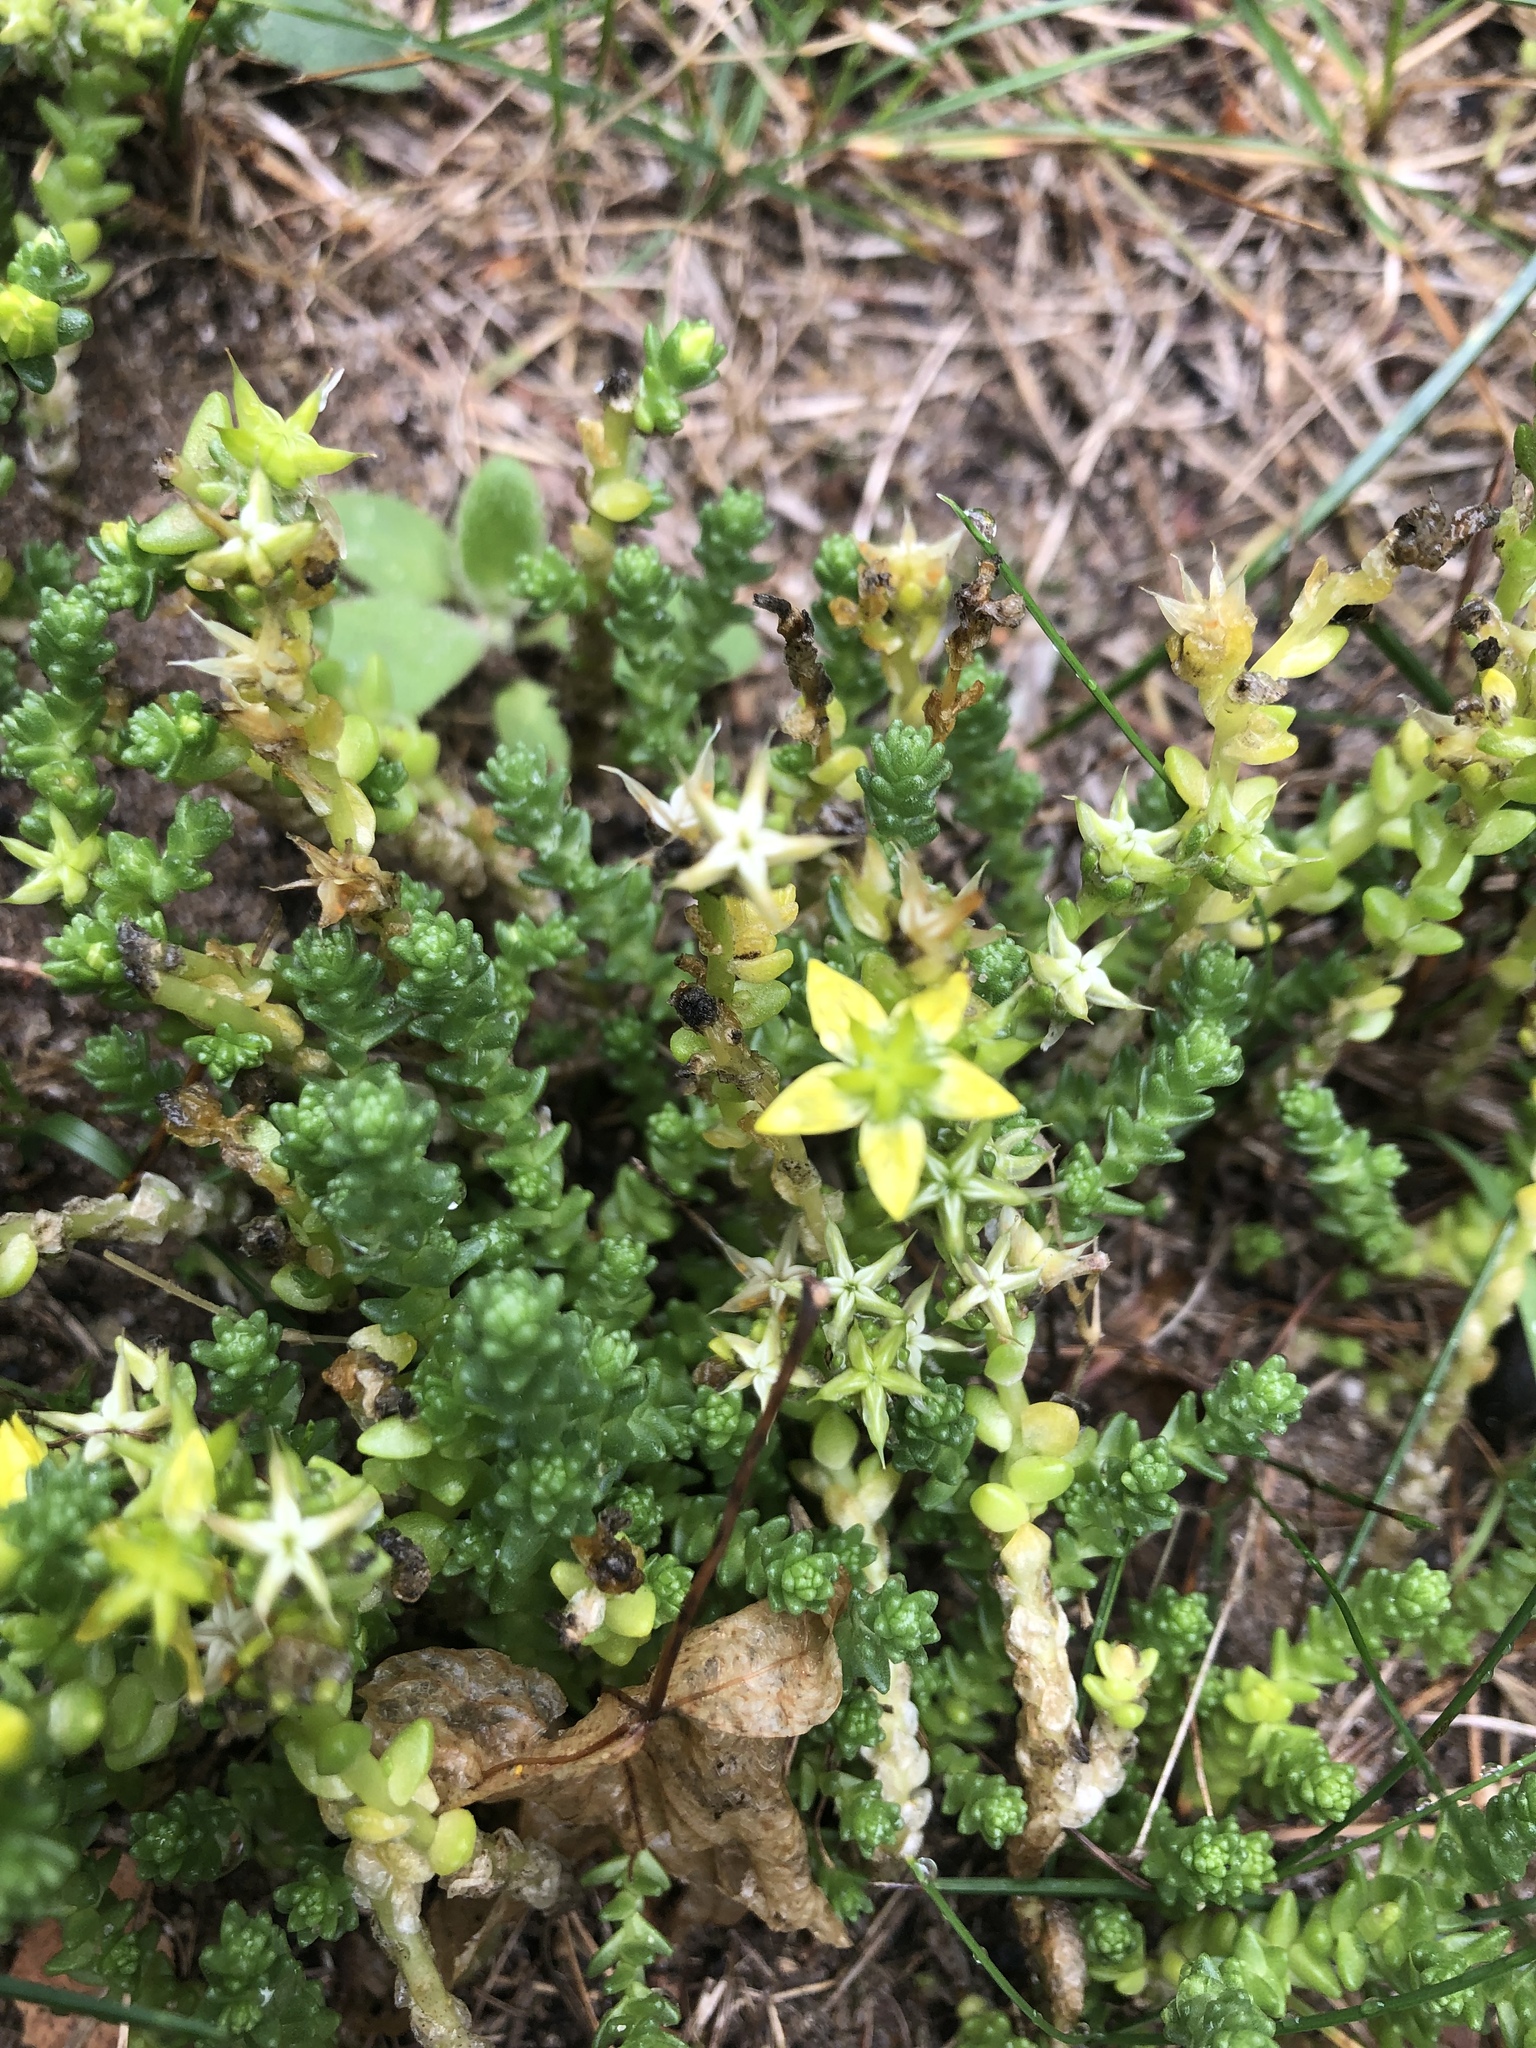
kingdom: Plantae
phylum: Tracheophyta
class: Magnoliopsida
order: Saxifragales
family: Crassulaceae
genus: Sedum
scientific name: Sedum acre
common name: Biting stonecrop
